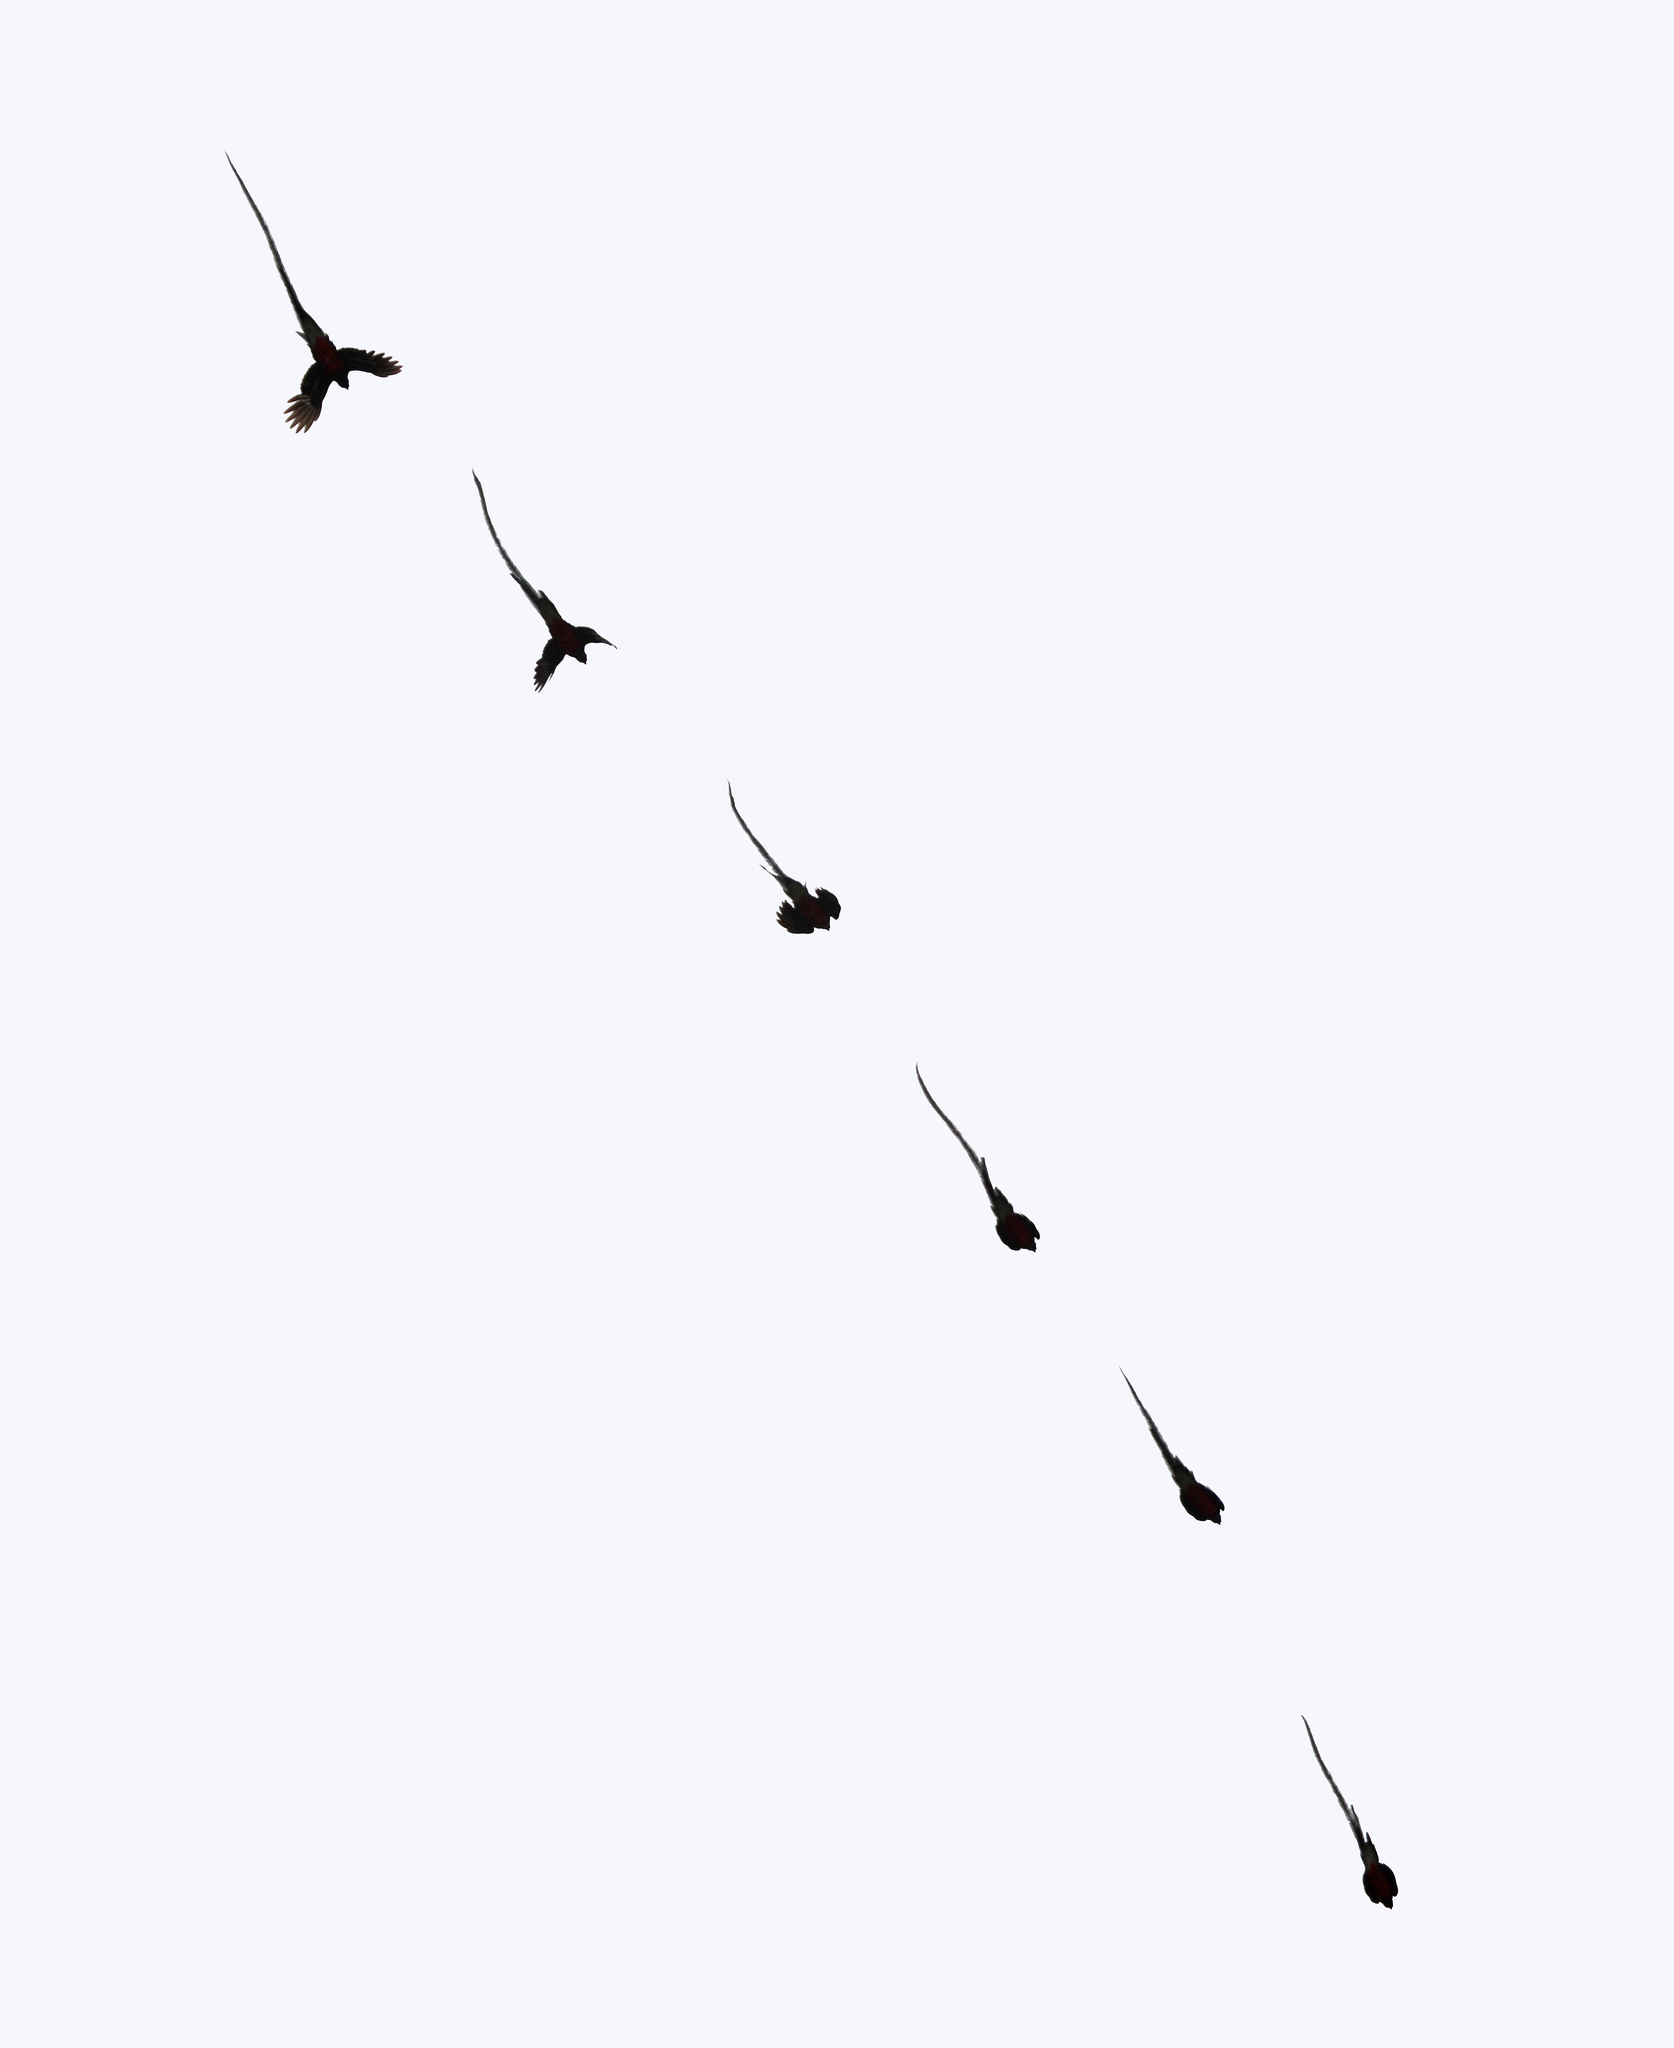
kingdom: Animalia
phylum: Chordata
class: Aves
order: Trogoniformes
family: Trogonidae
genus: Pharomachrus
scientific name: Pharomachrus mocinno
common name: Resplendent quetzal
